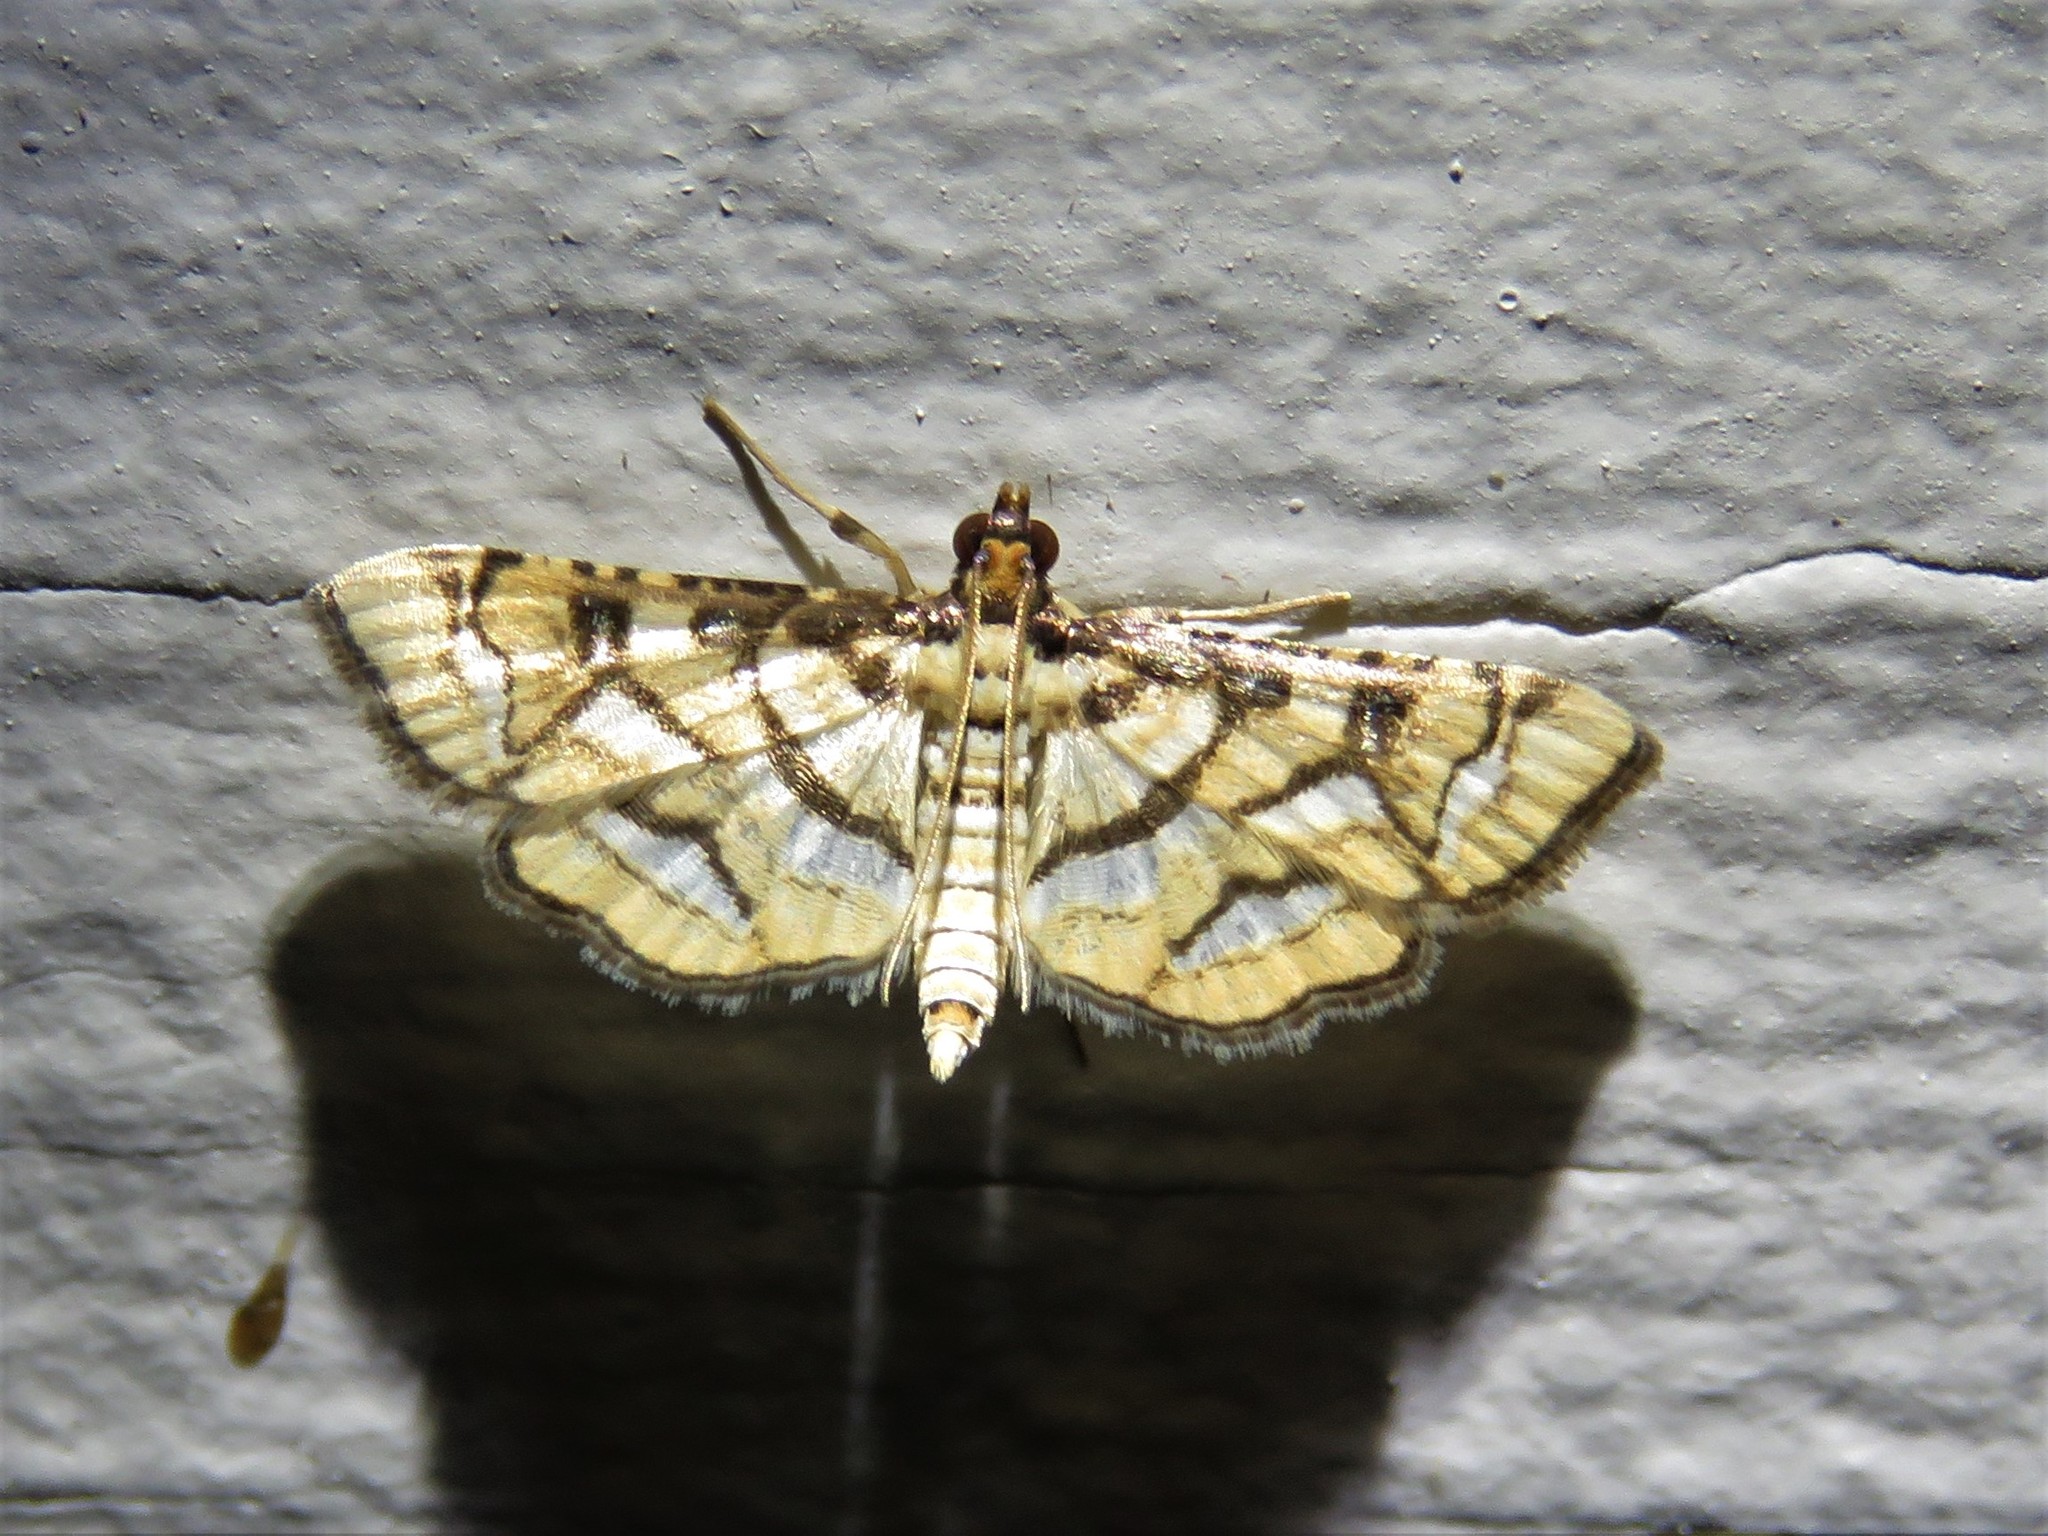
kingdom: Animalia
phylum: Arthropoda
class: Insecta
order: Lepidoptera
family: Crambidae
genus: Hileithia
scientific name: Hileithia magualis
